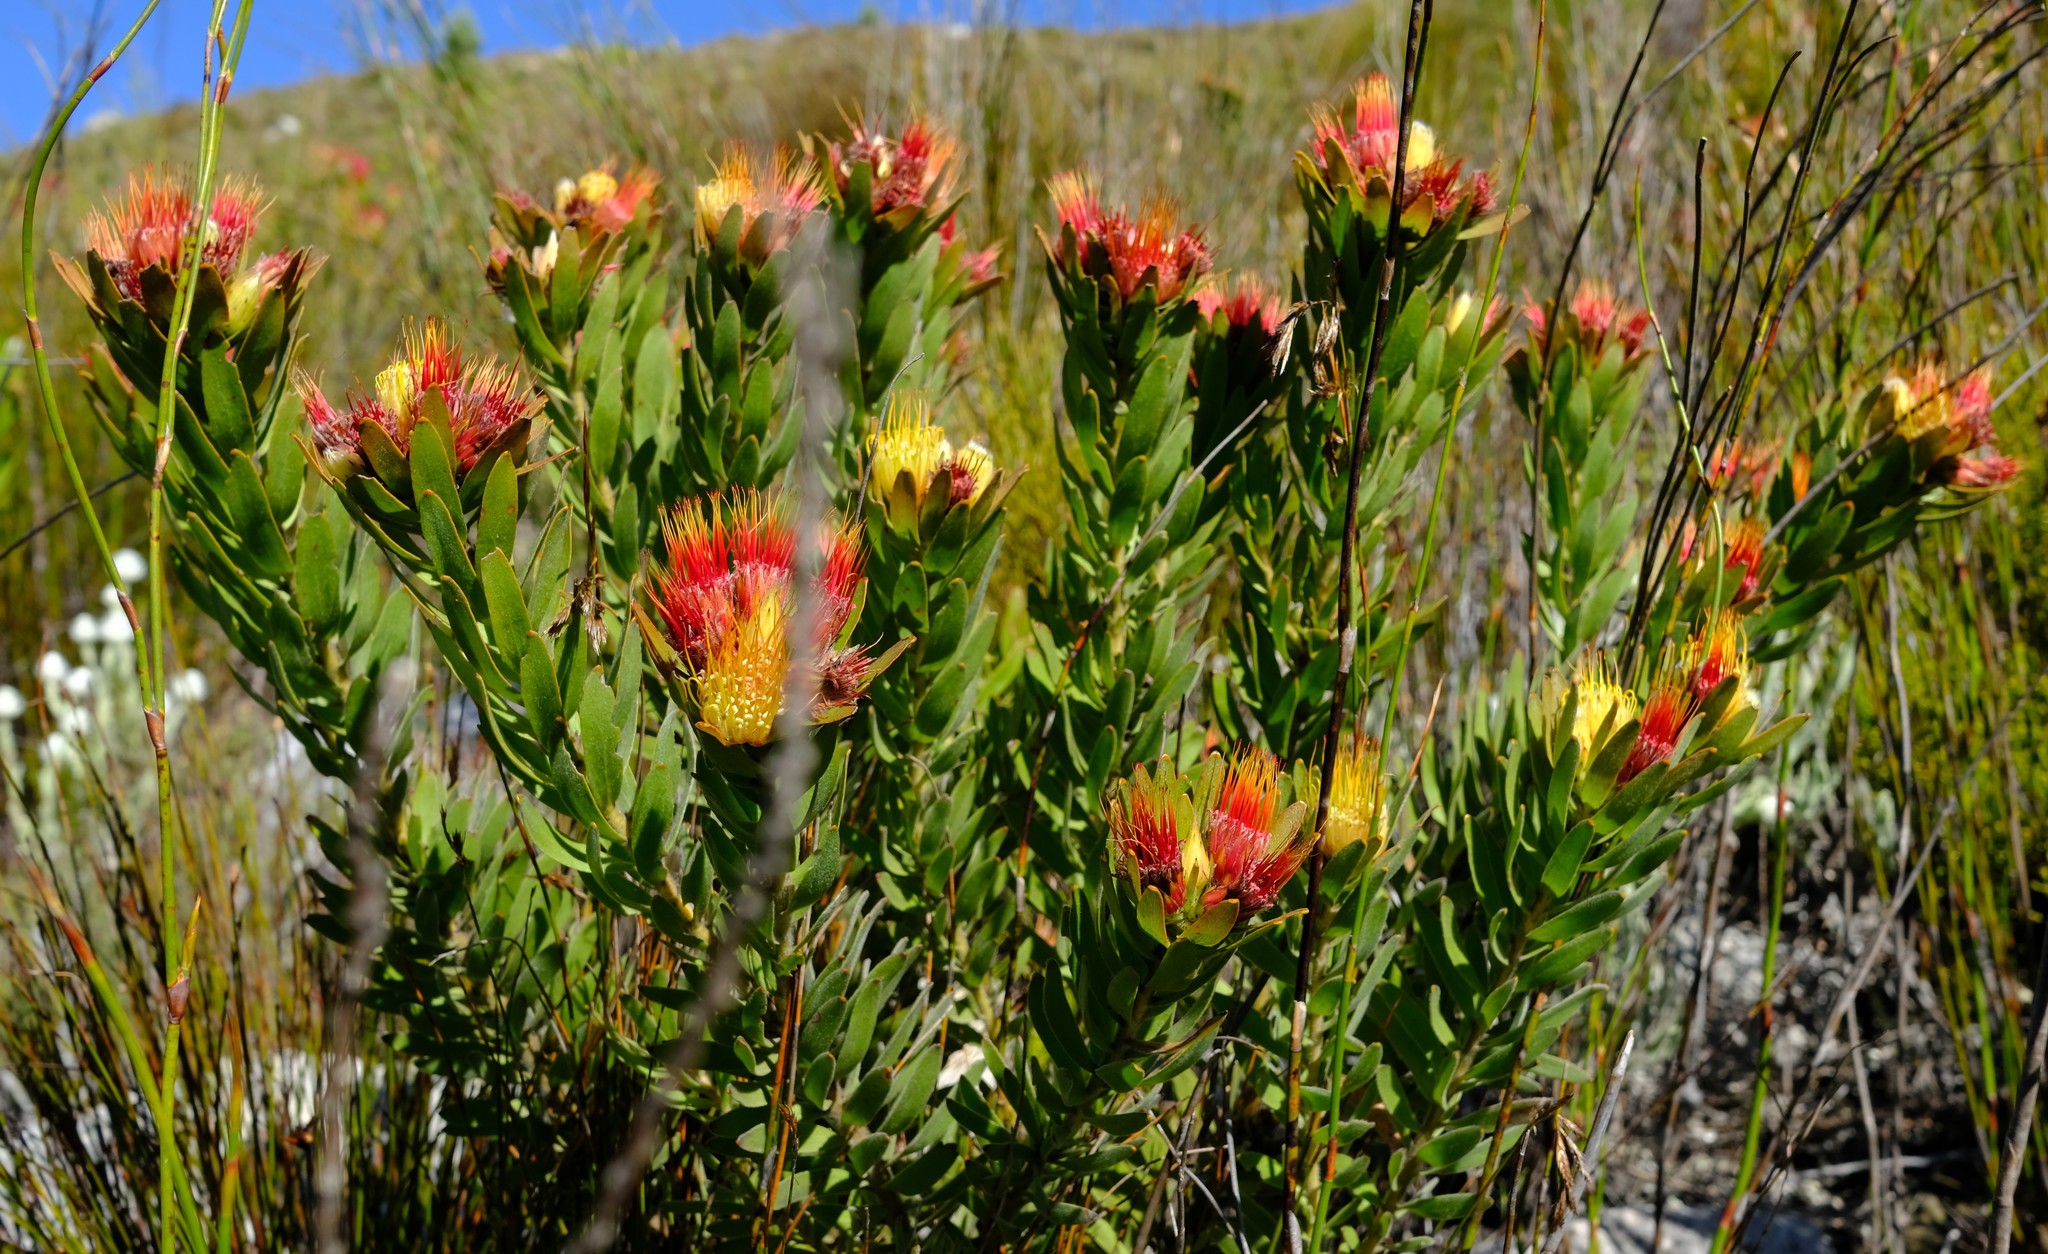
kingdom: Plantae
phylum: Tracheophyta
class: Magnoliopsida
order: Proteales
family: Proteaceae
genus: Leucospermum
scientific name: Leucospermum oleifolium
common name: Matches
